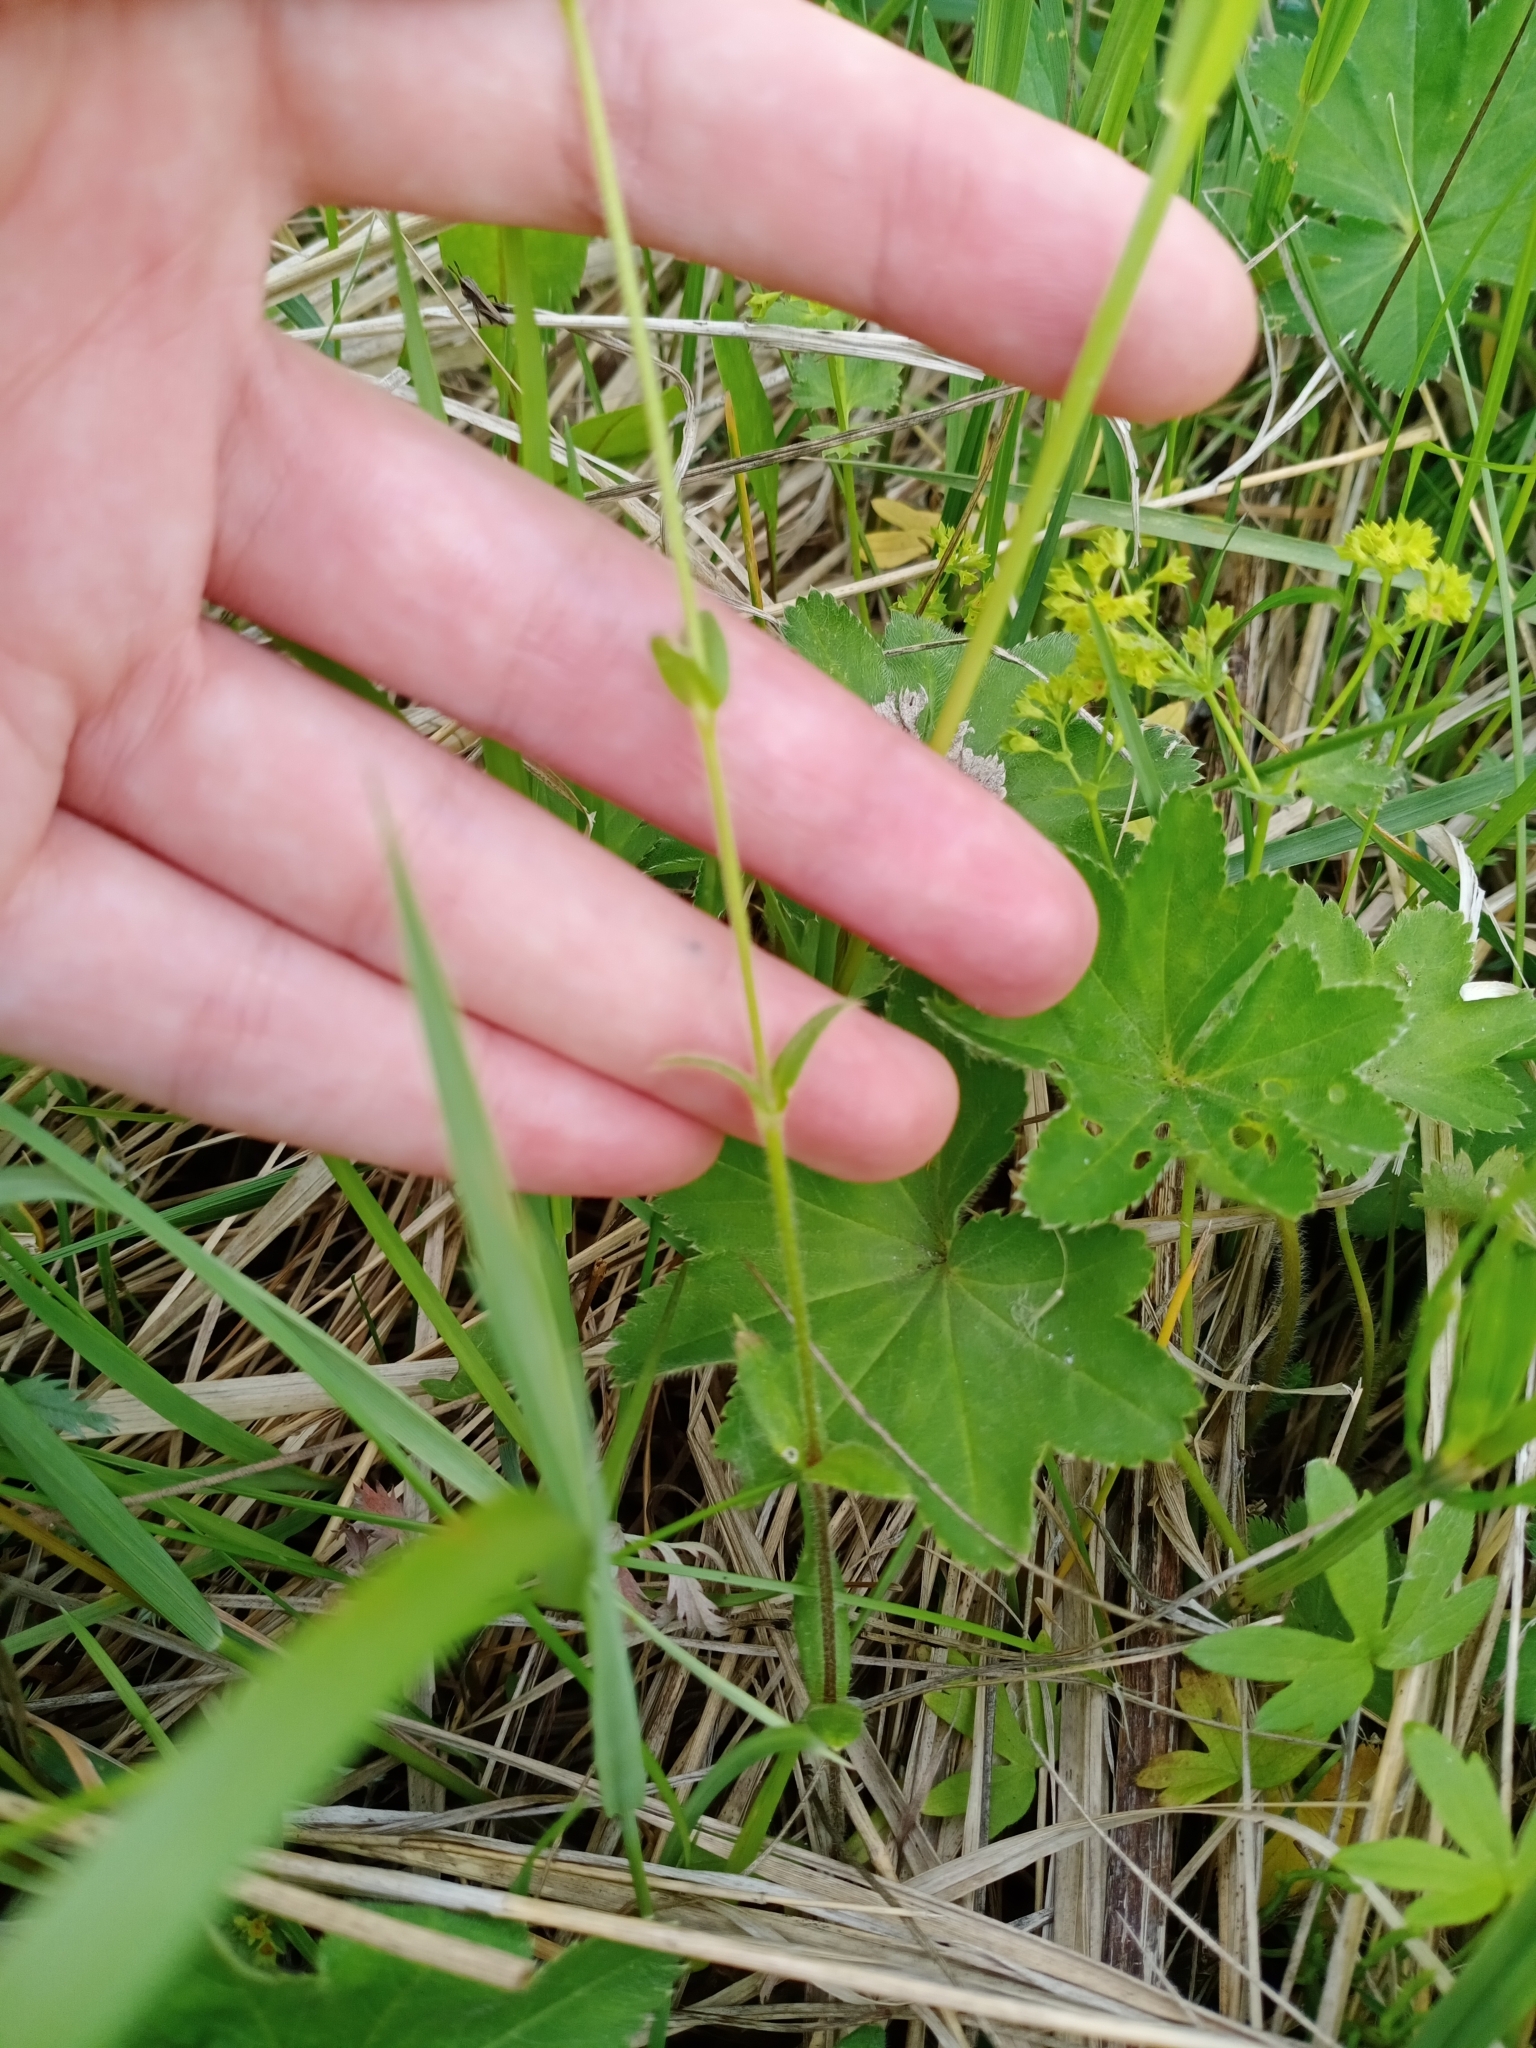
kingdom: Plantae
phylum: Tracheophyta
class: Magnoliopsida
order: Caryophyllales
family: Caryophyllaceae
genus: Cerastium
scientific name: Cerastium holosteoides
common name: Big chickweed
